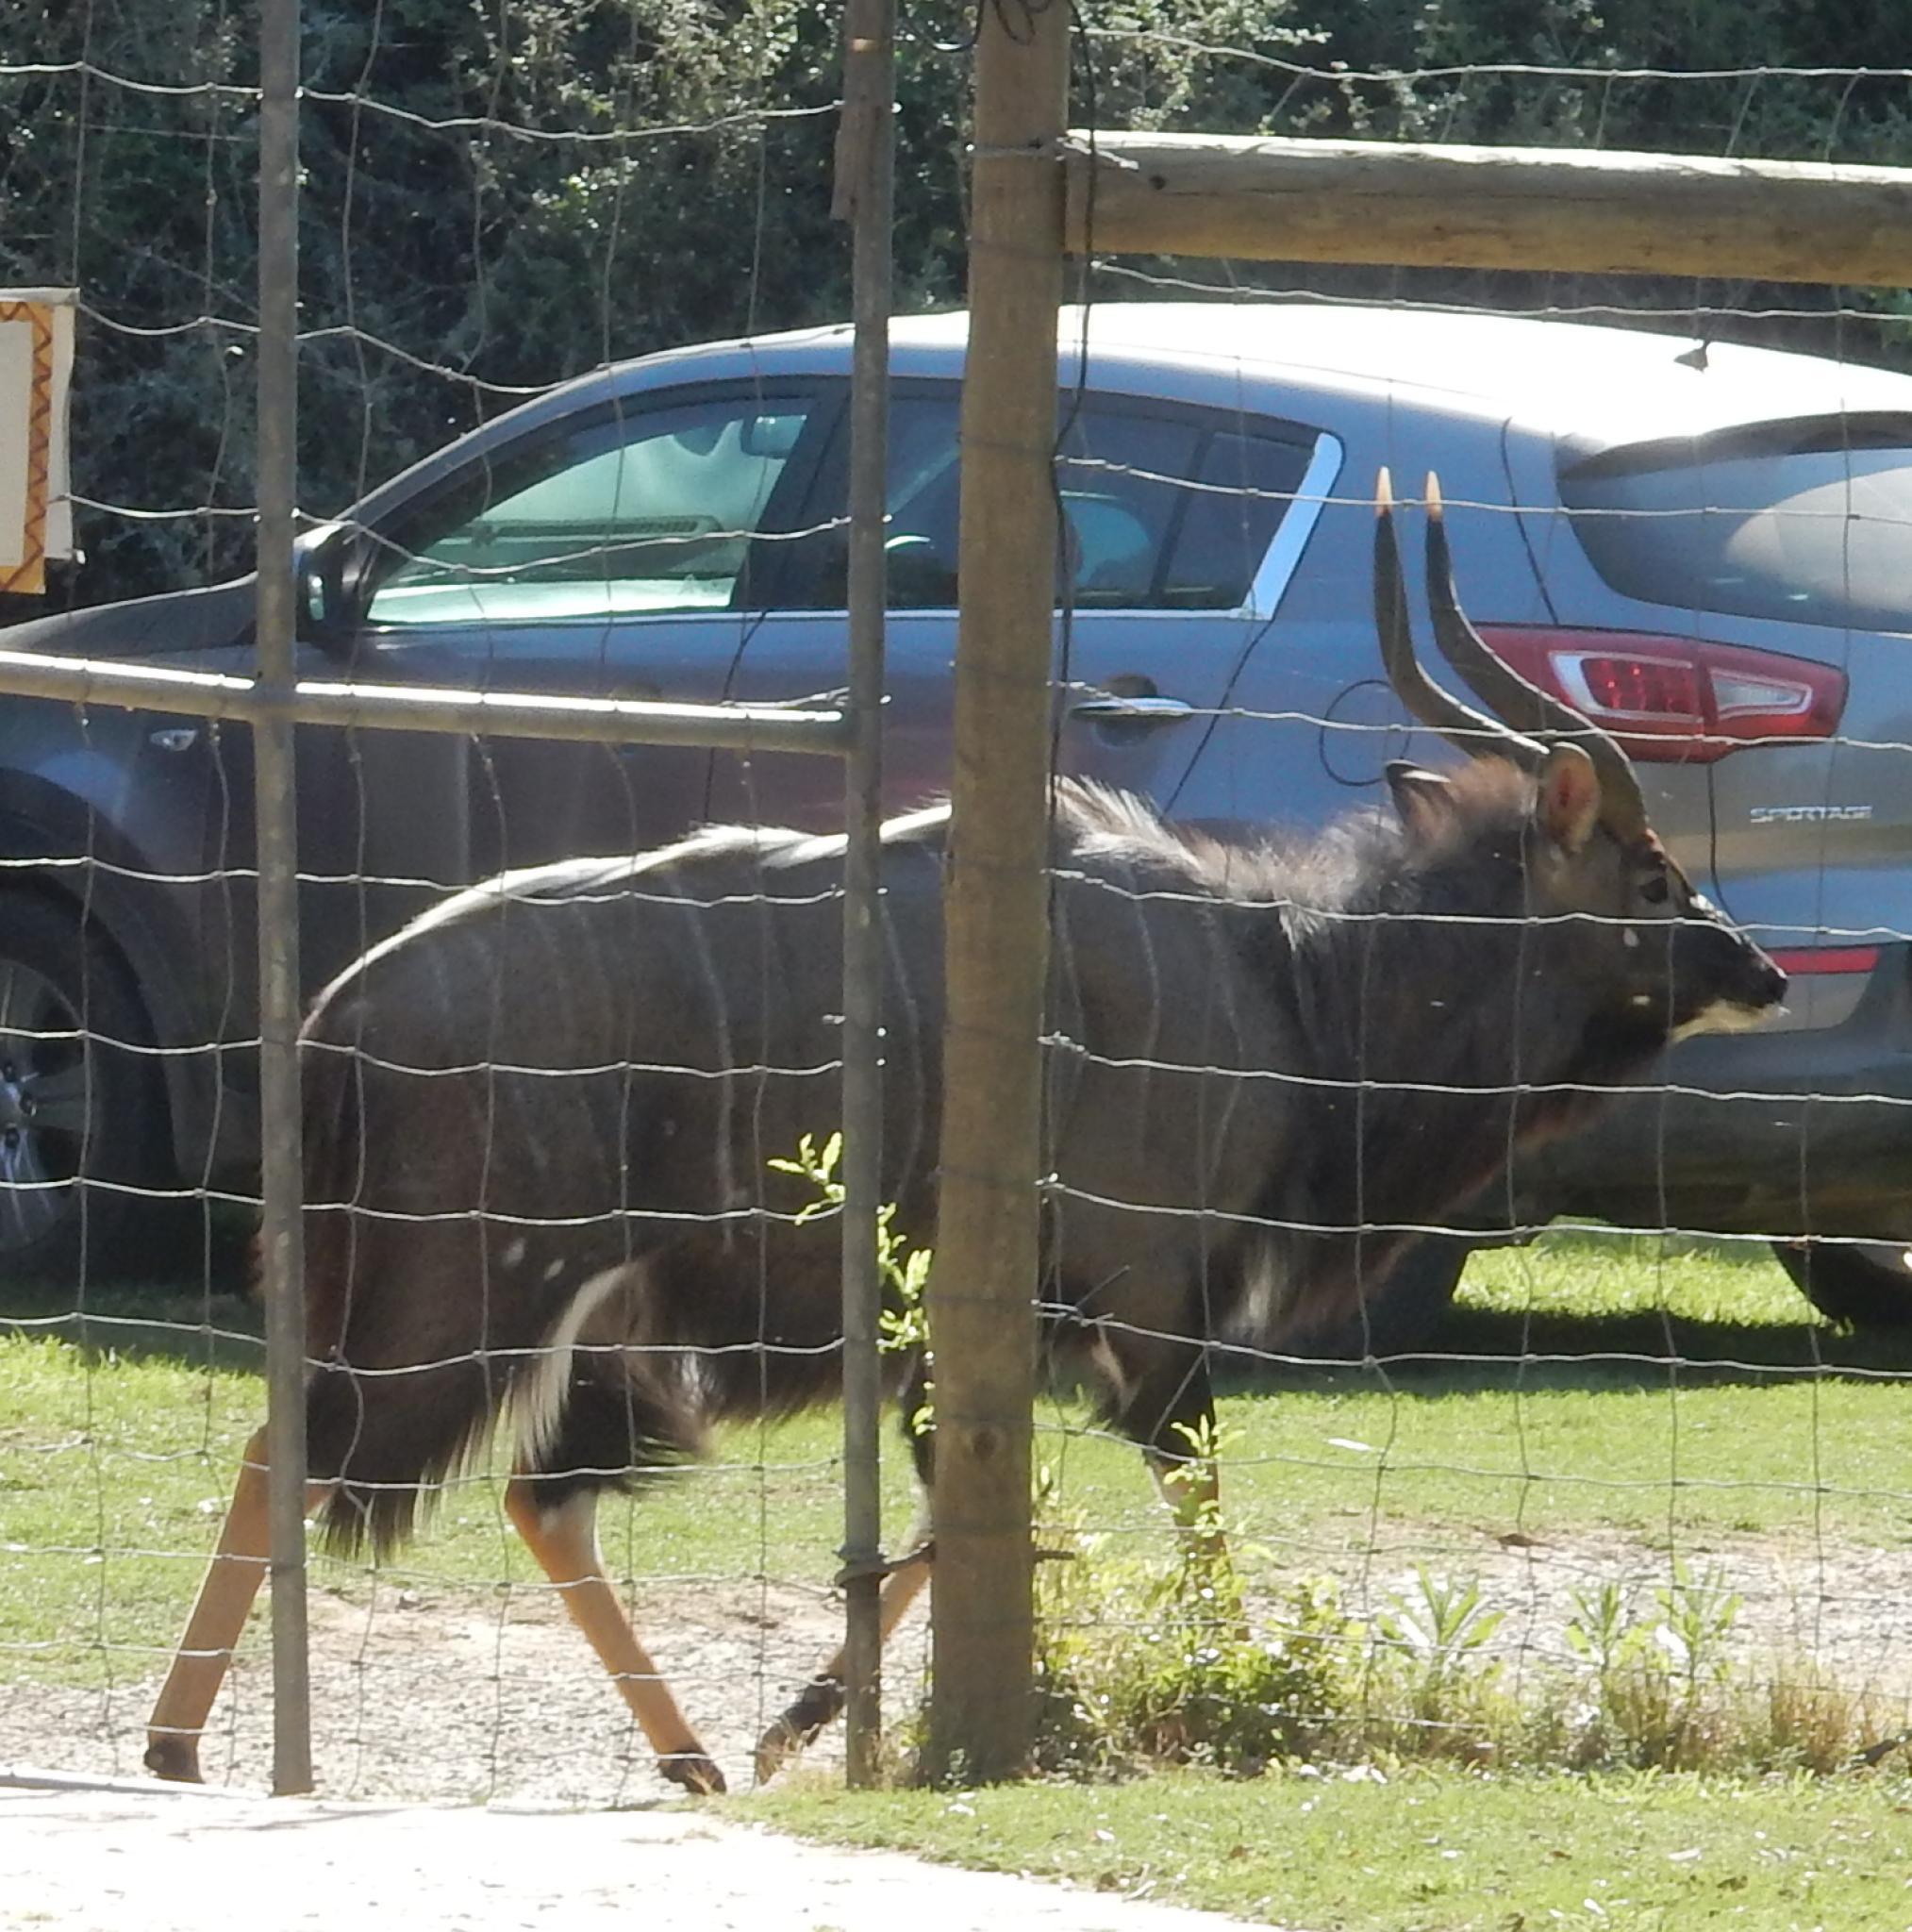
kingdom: Animalia
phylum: Chordata
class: Mammalia
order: Artiodactyla
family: Bovidae
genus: Tragelaphus
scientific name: Tragelaphus angasii
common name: Nyala
